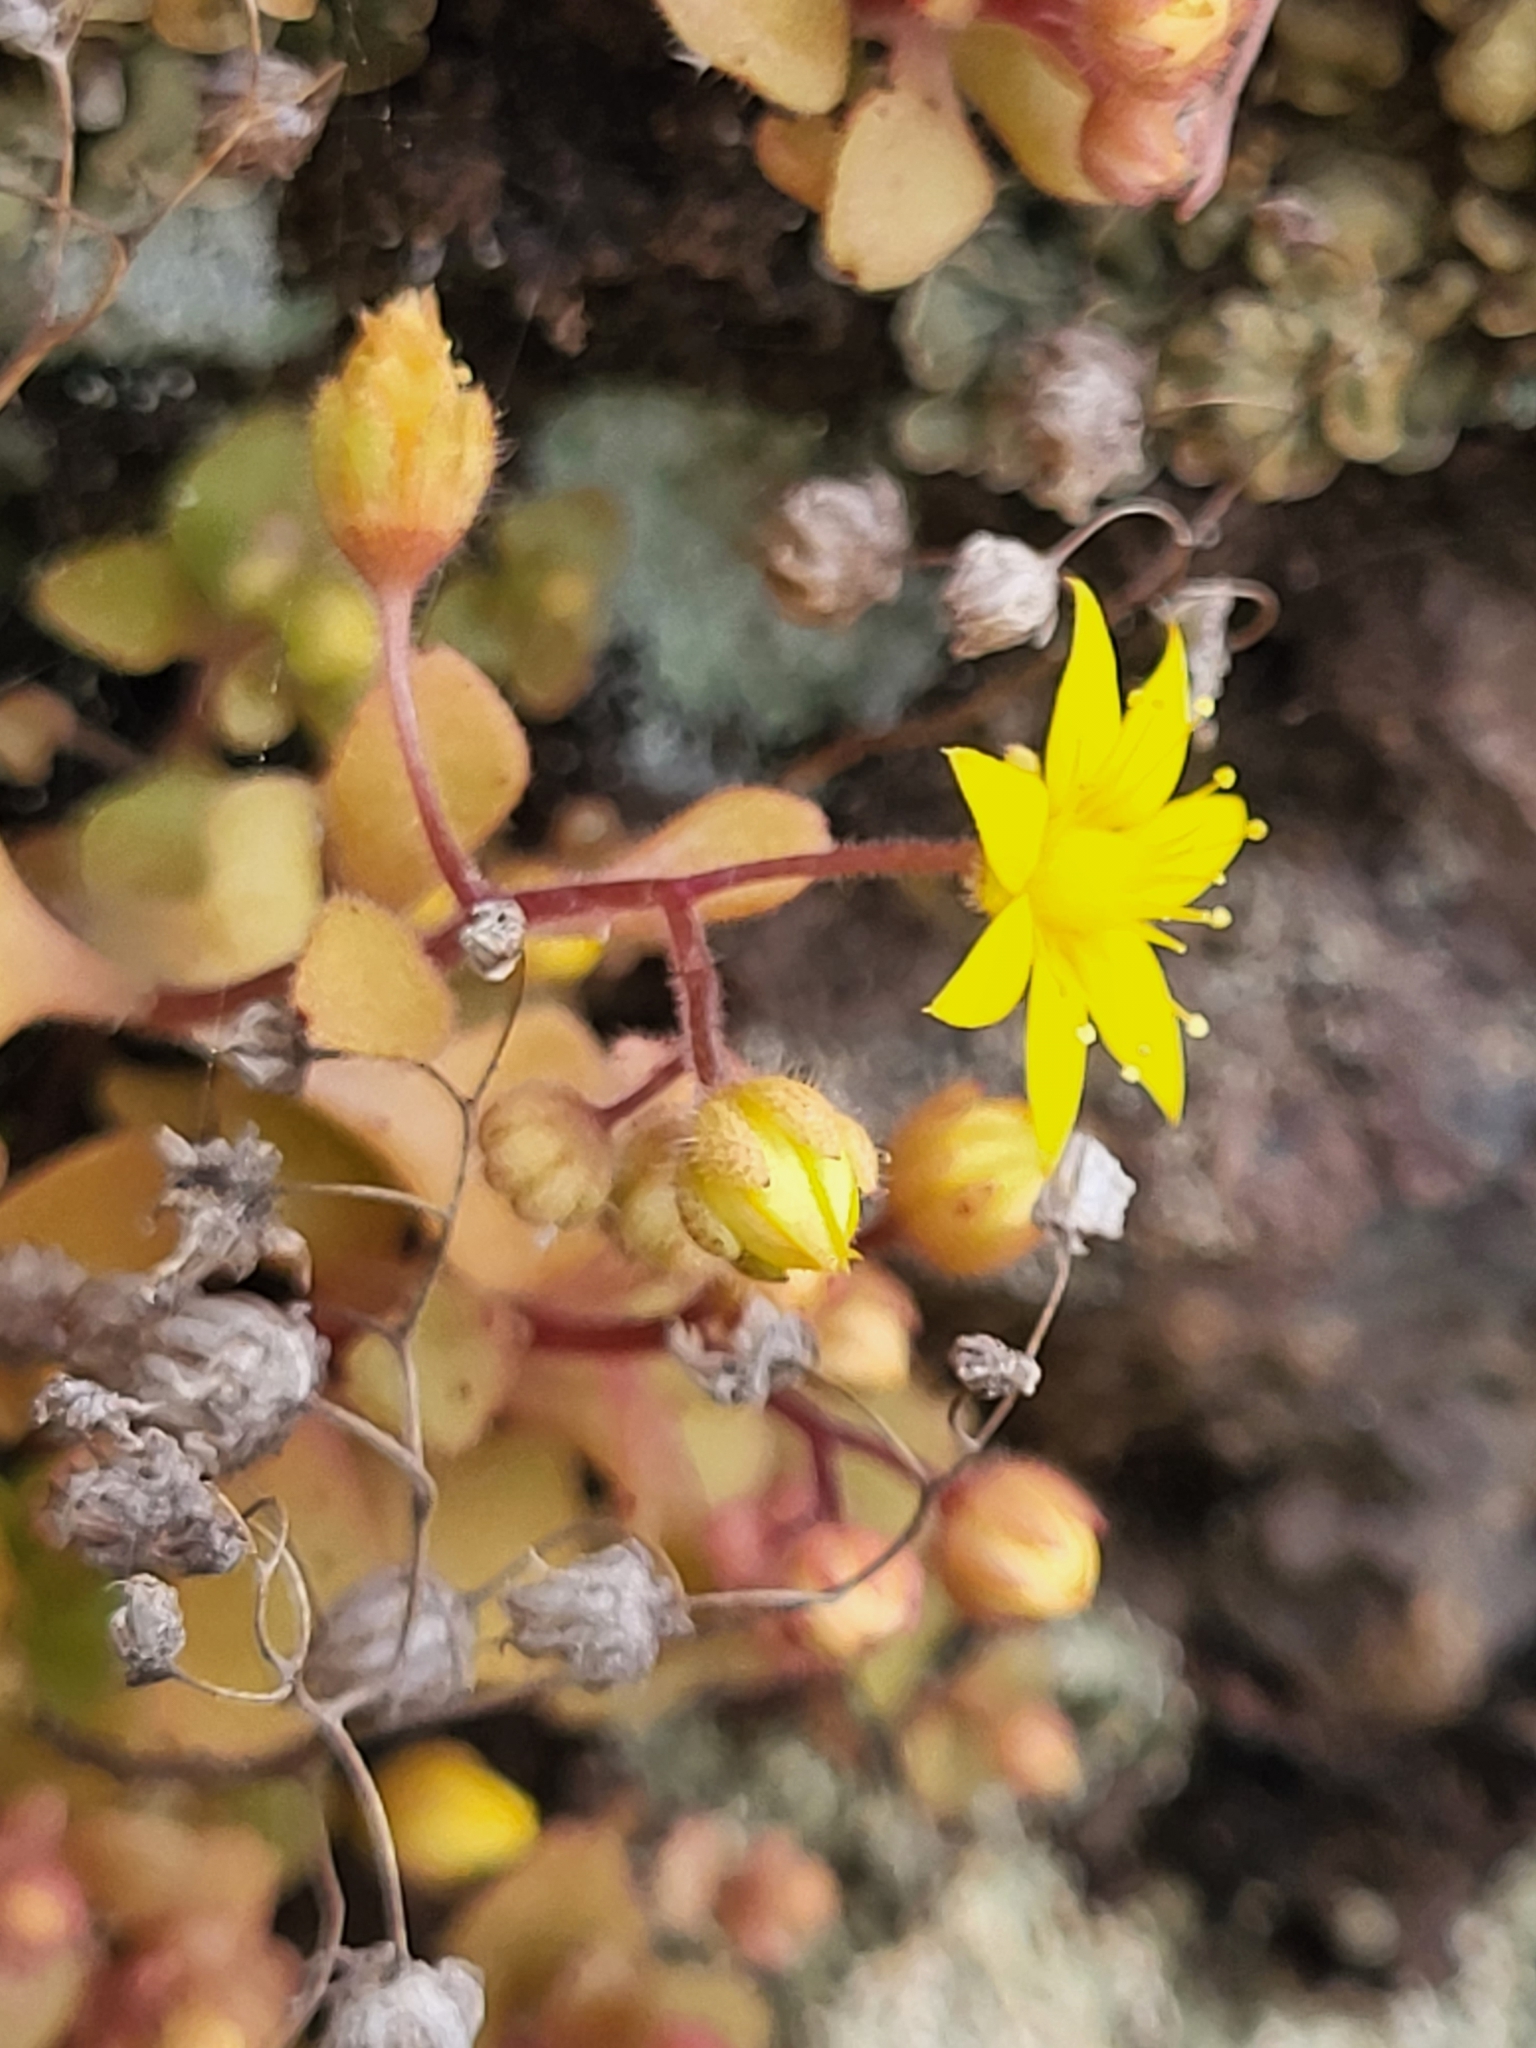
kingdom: Plantae
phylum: Tracheophyta
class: Magnoliopsida
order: Saxifragales
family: Crassulaceae
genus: Aichryson
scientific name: Aichryson parlatorei
